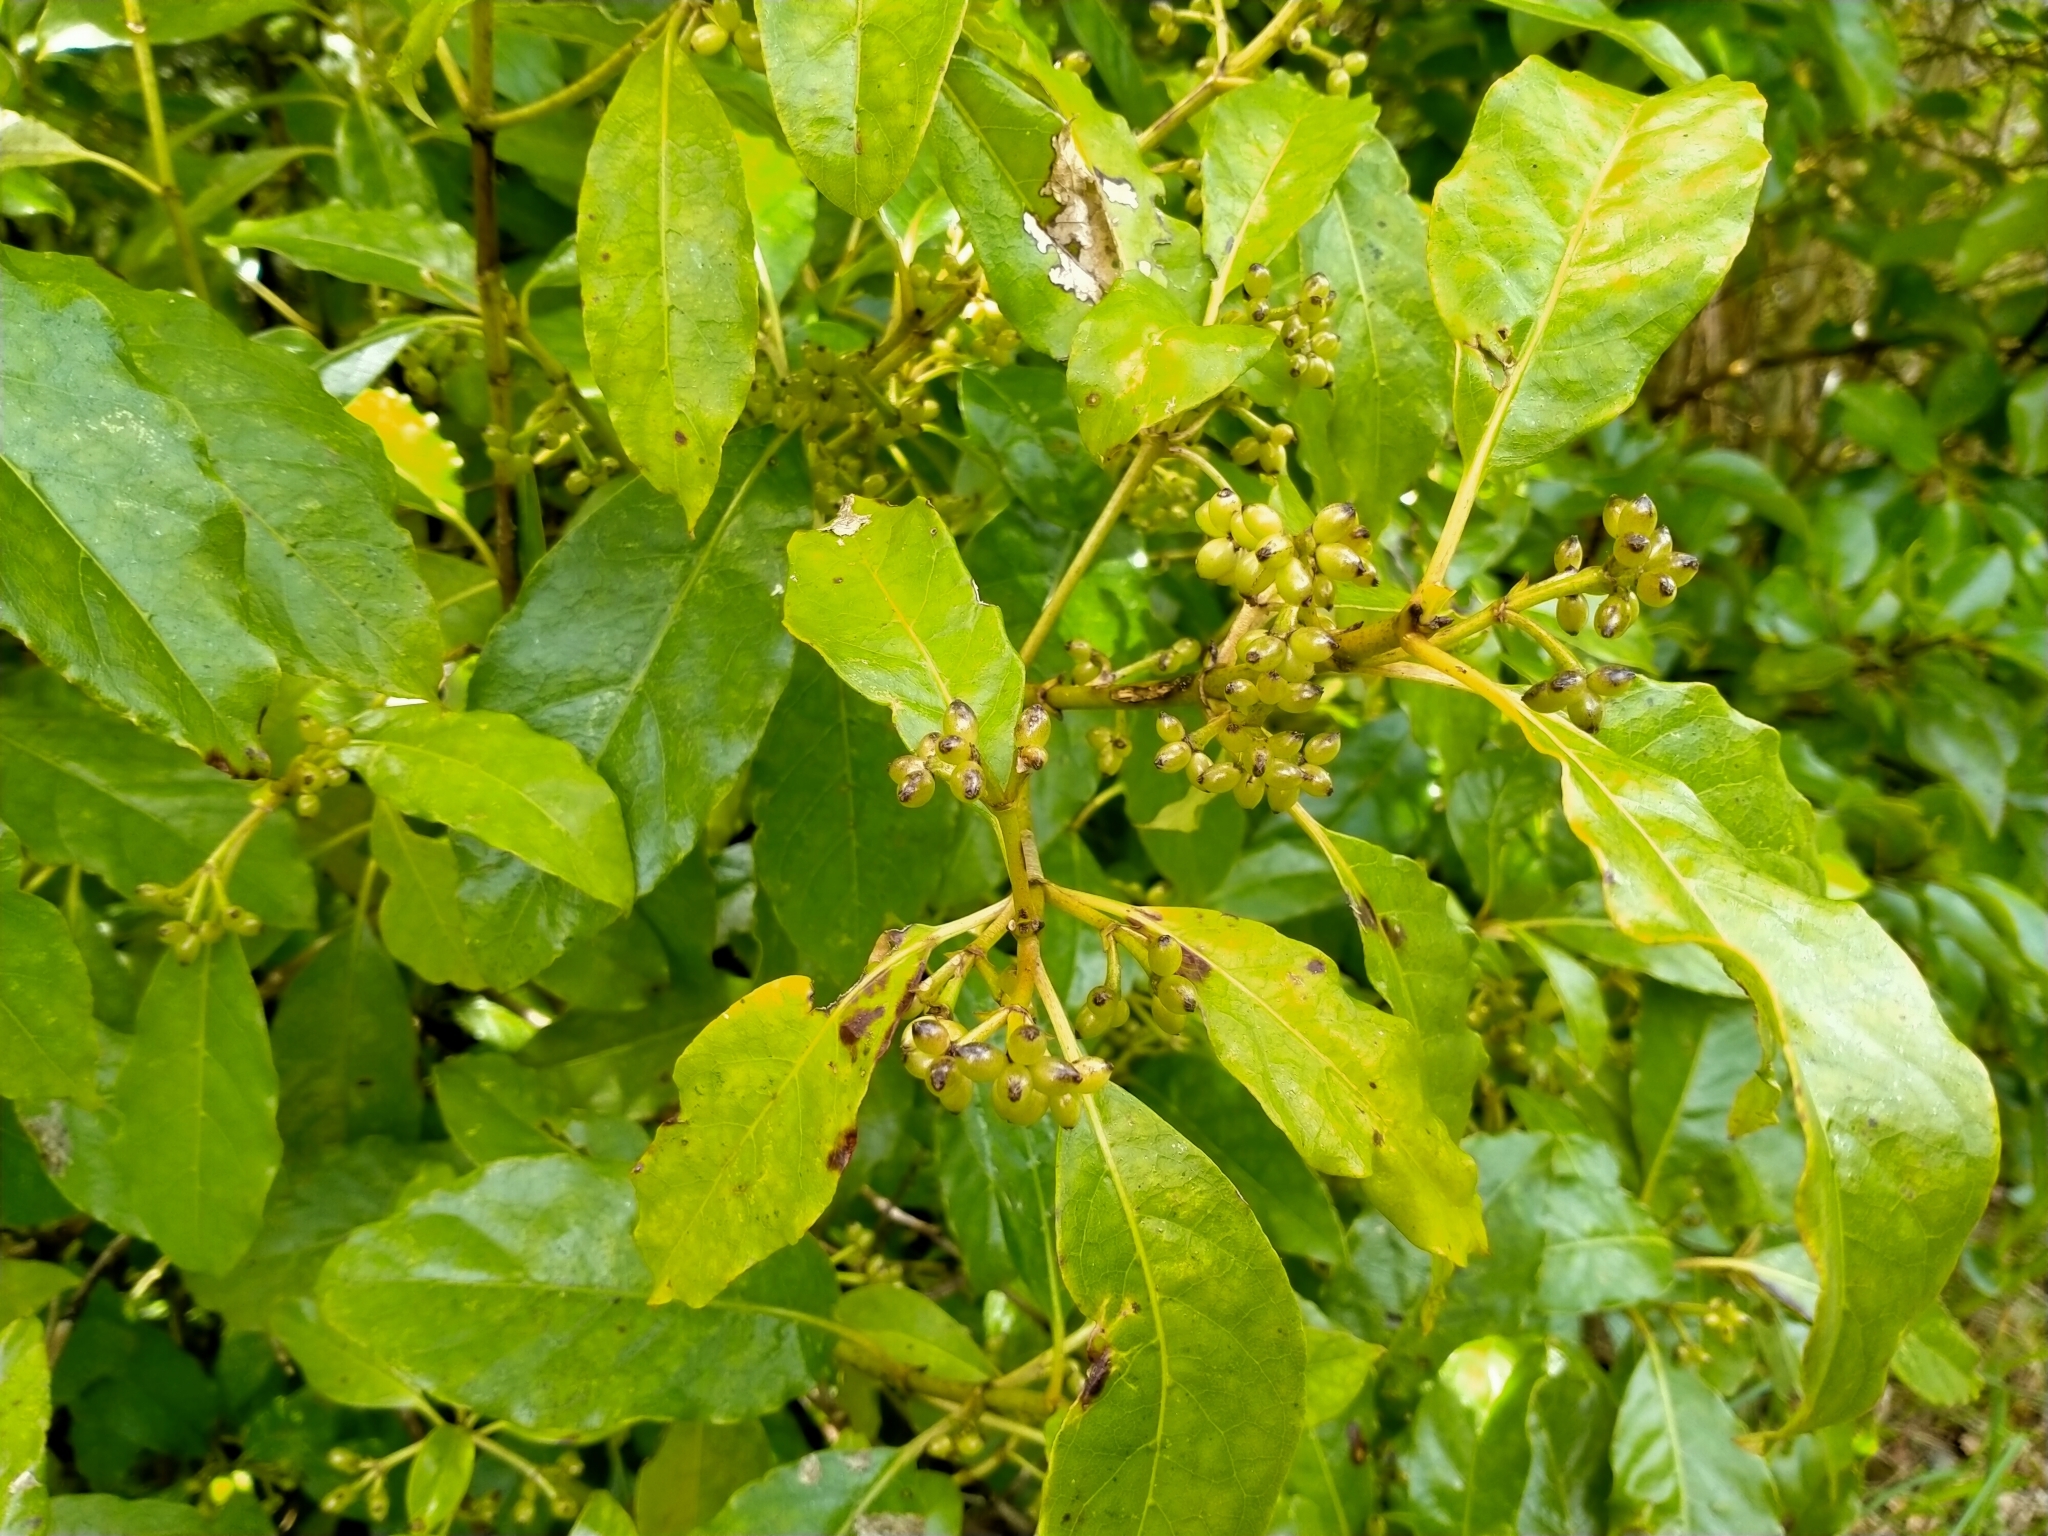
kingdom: Plantae
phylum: Tracheophyta
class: Magnoliopsida
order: Gentianales
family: Rubiaceae
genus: Coprosma
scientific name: Coprosma autumnalis
